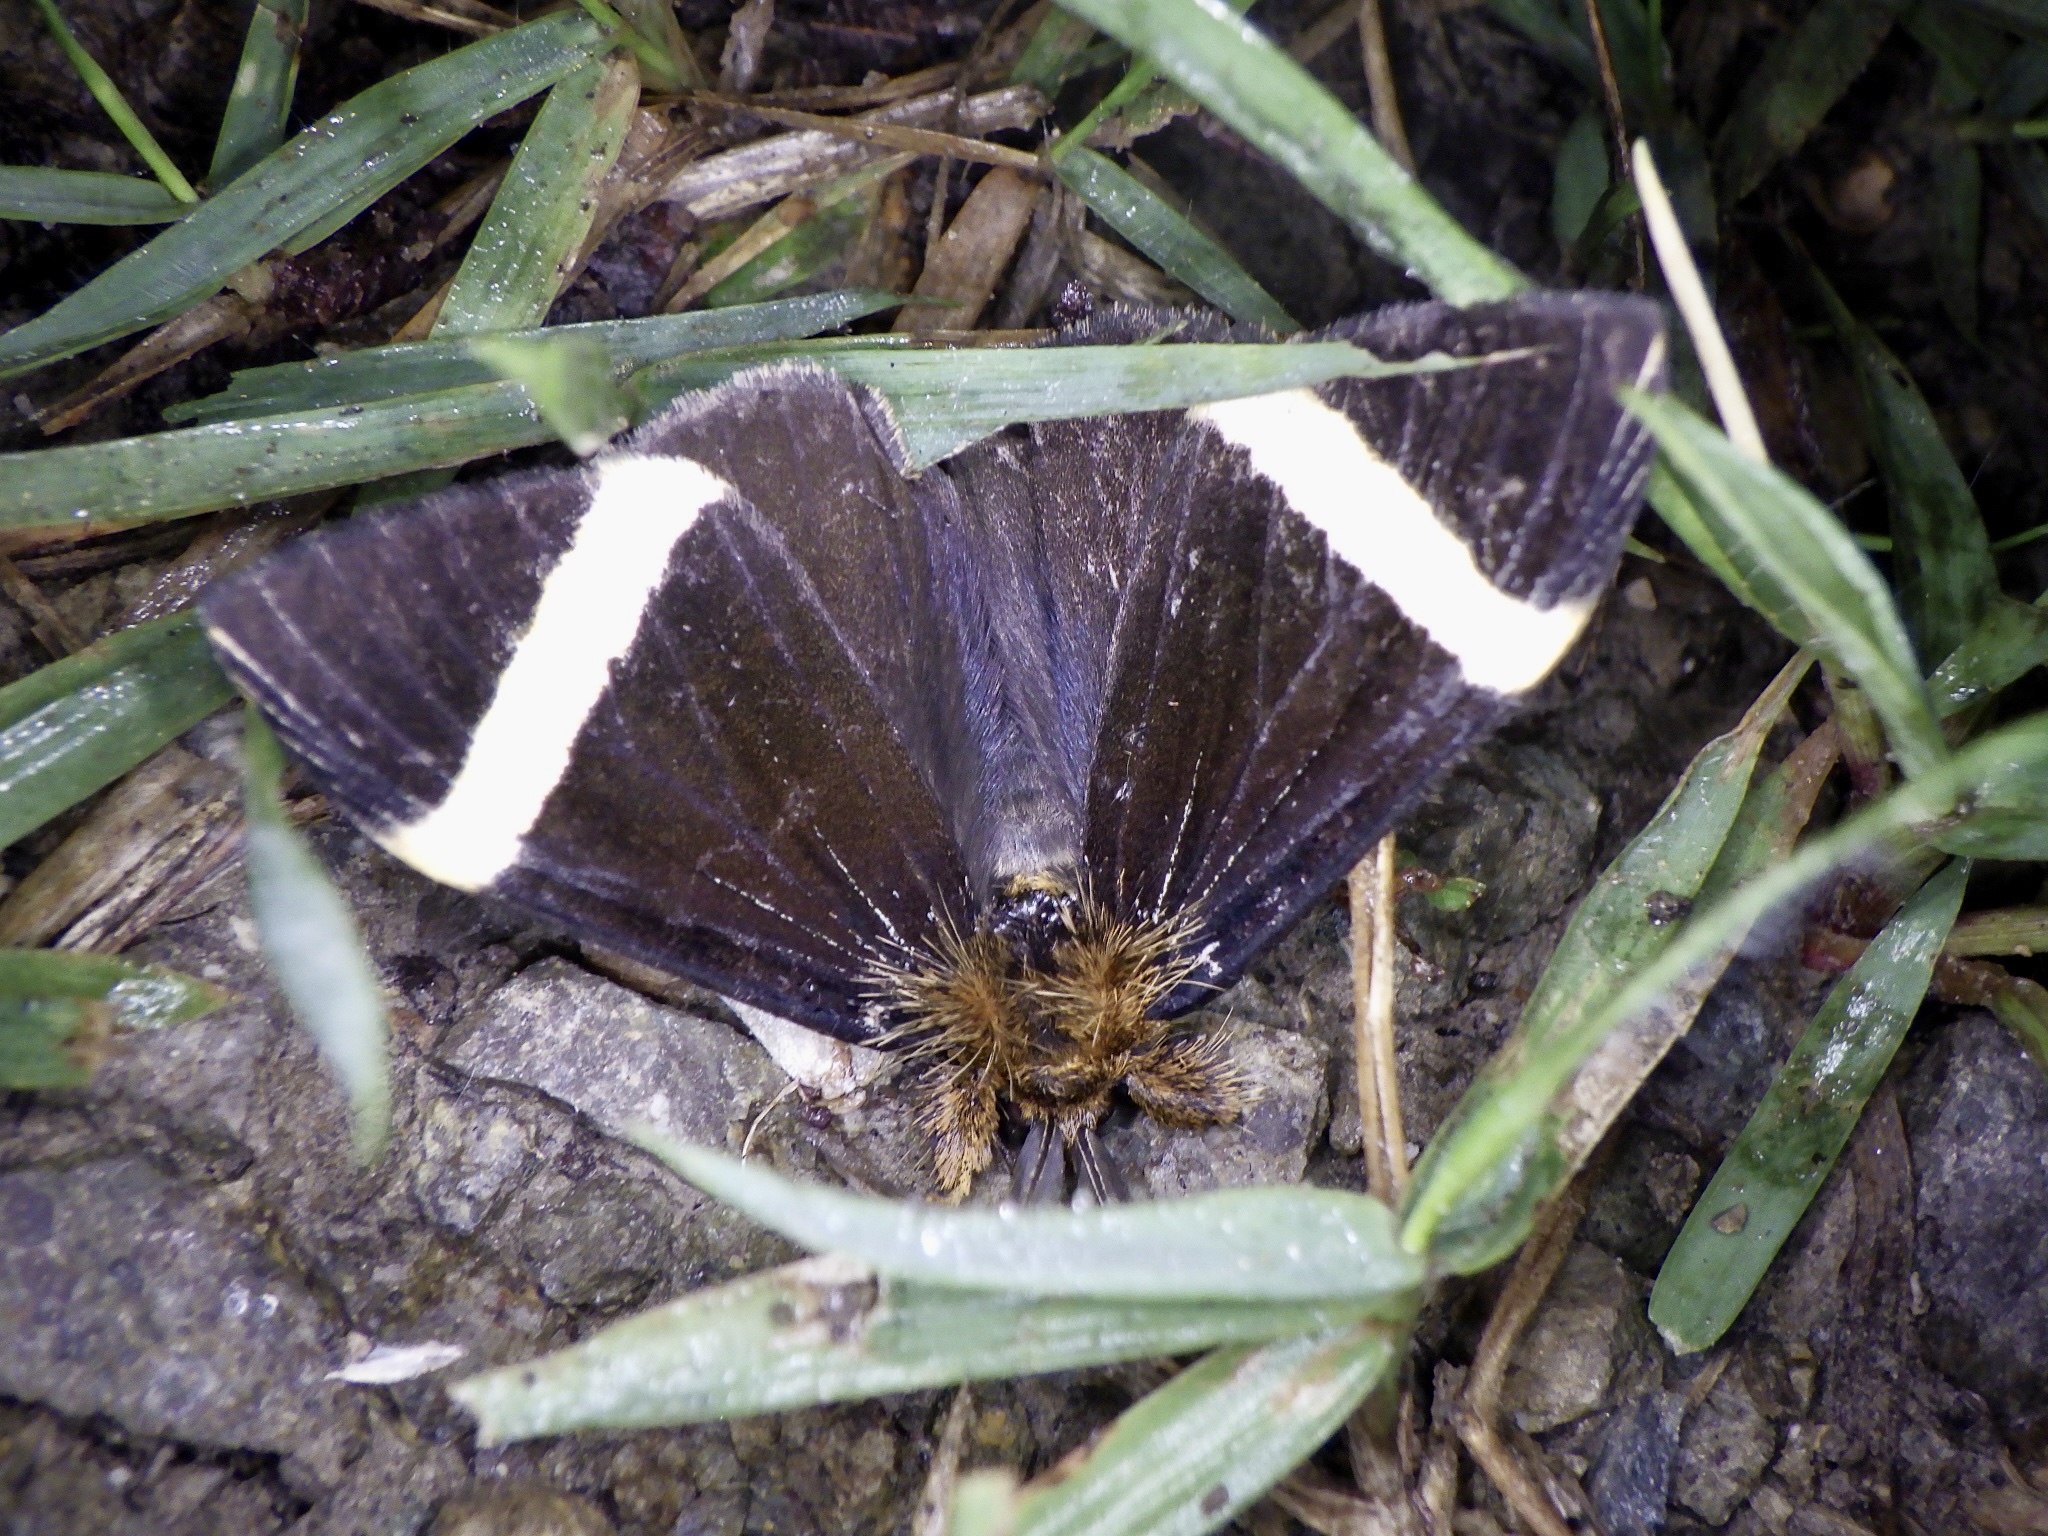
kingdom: Animalia
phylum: Arthropoda
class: Insecta
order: Lepidoptera
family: Erebidae
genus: Kuromondokuga
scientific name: Kuromondokuga albofascia
